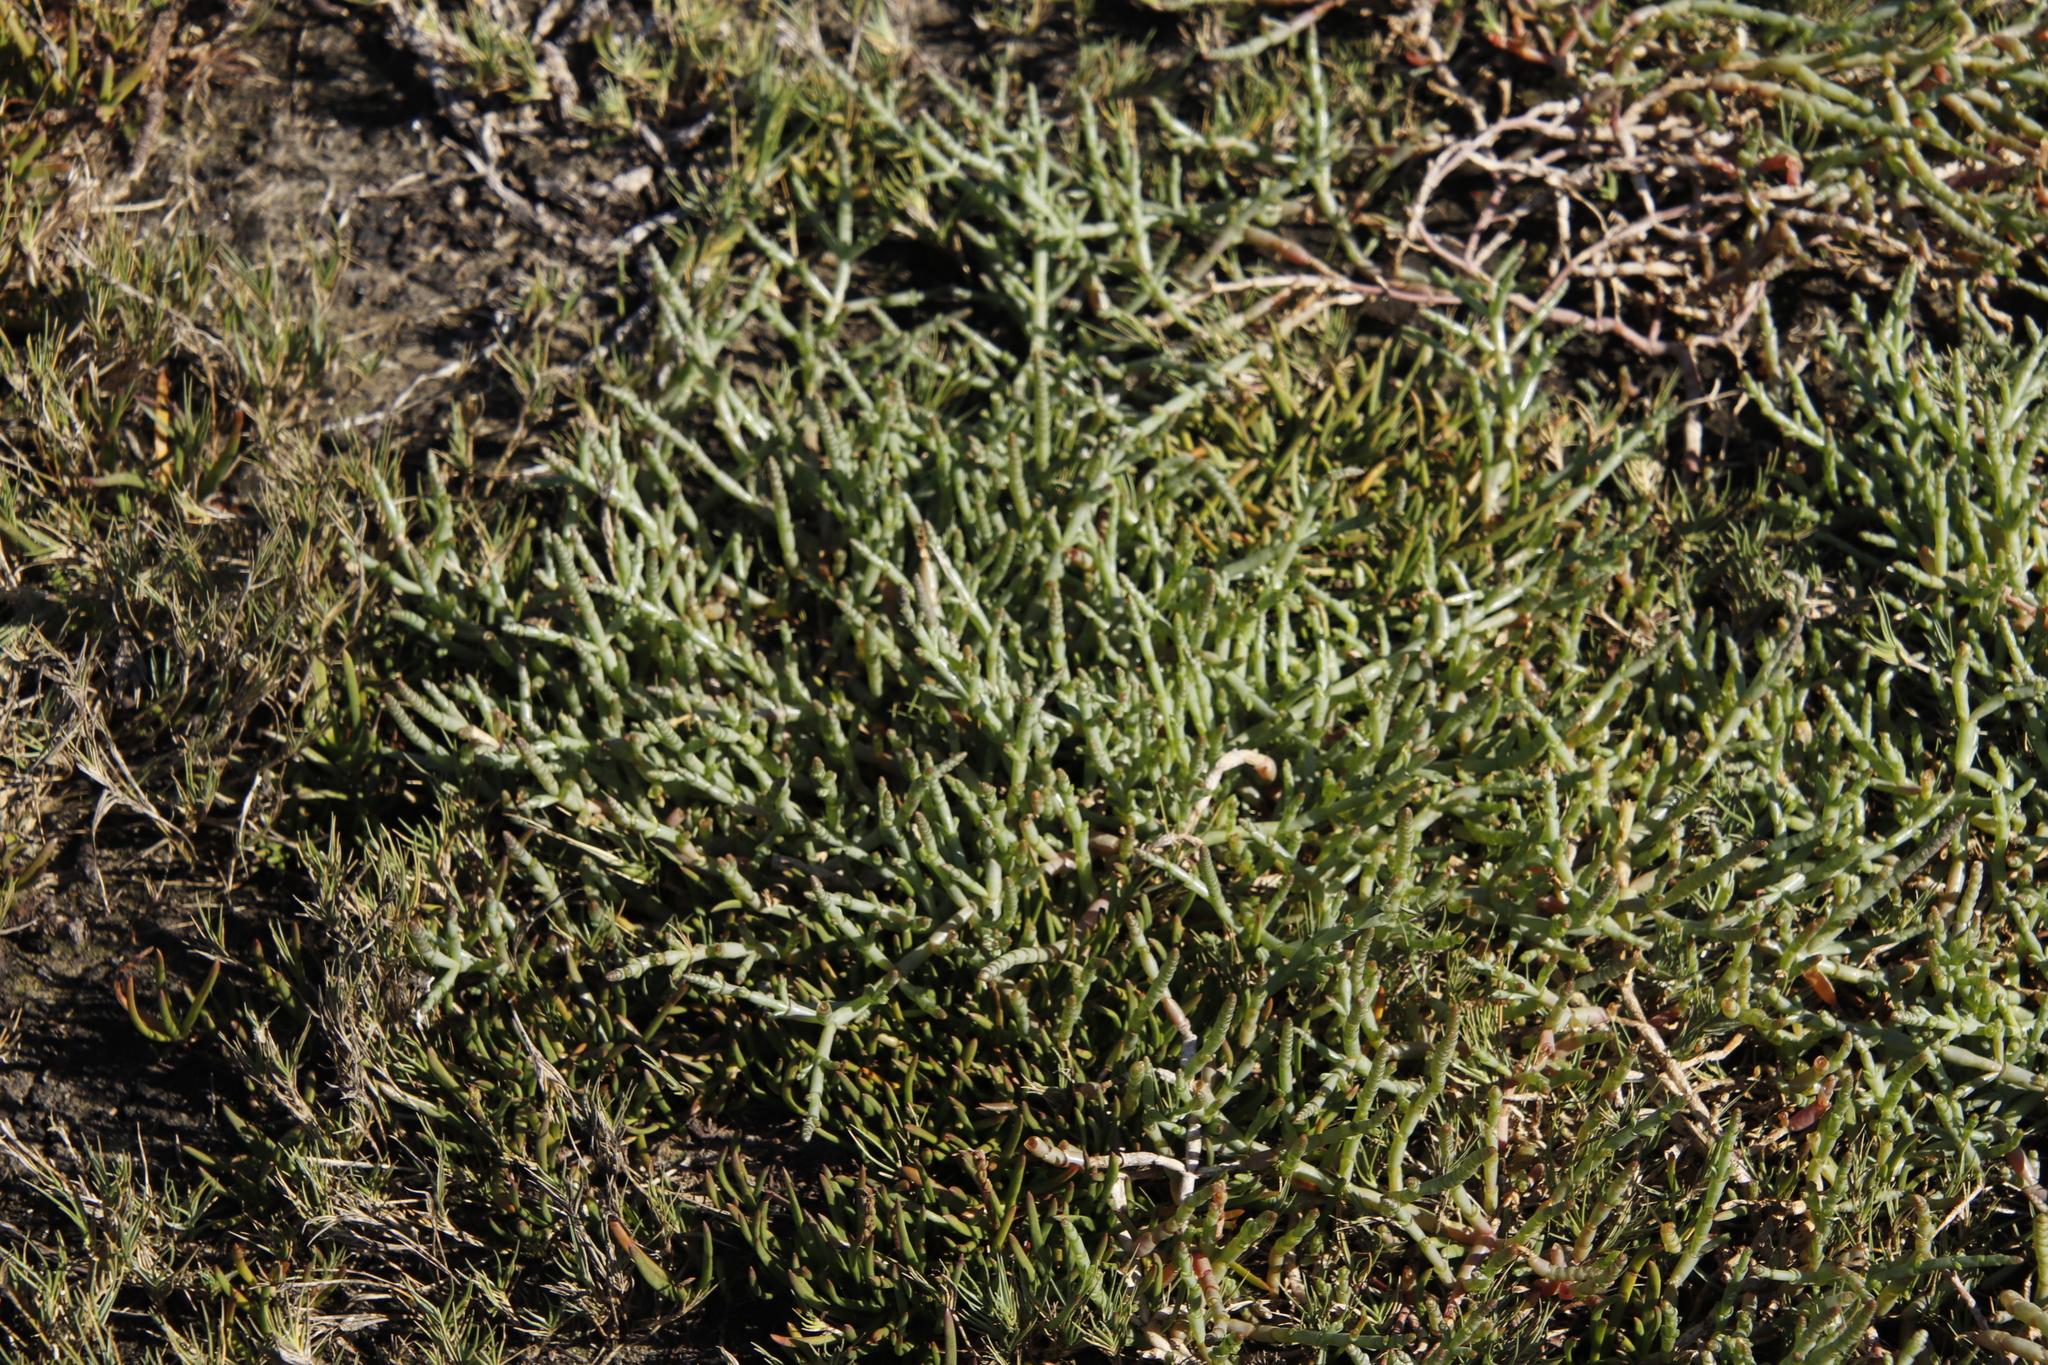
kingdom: Plantae
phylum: Tracheophyta
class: Magnoliopsida
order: Caryophyllales
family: Amaranthaceae
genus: Salicornia
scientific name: Salicornia natalensis
